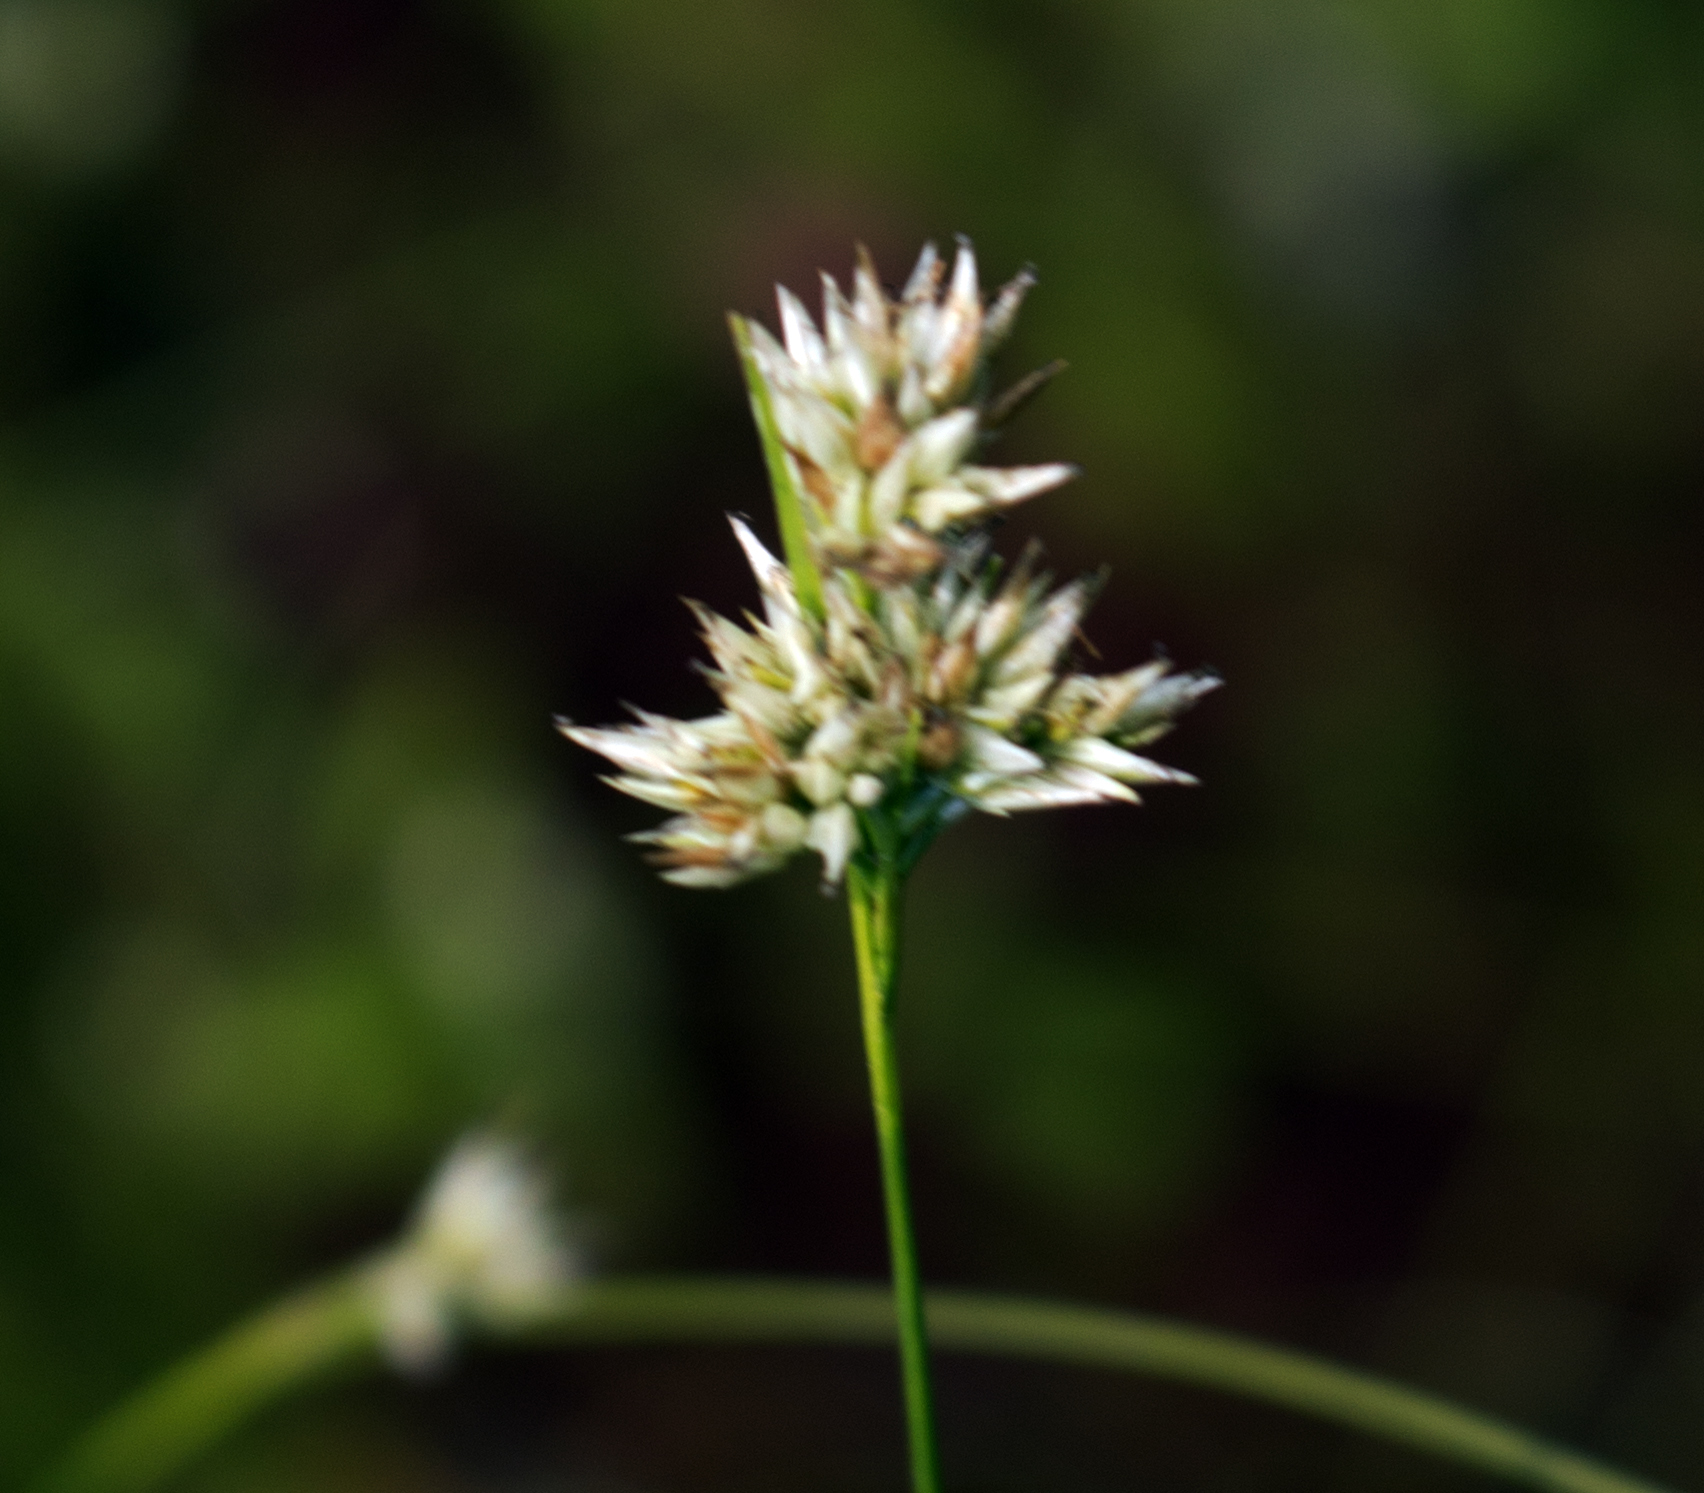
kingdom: Plantae
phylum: Tracheophyta
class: Liliopsida
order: Poales
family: Cyperaceae
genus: Rhynchospora
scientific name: Rhynchospora alba
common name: White beak-sedge
